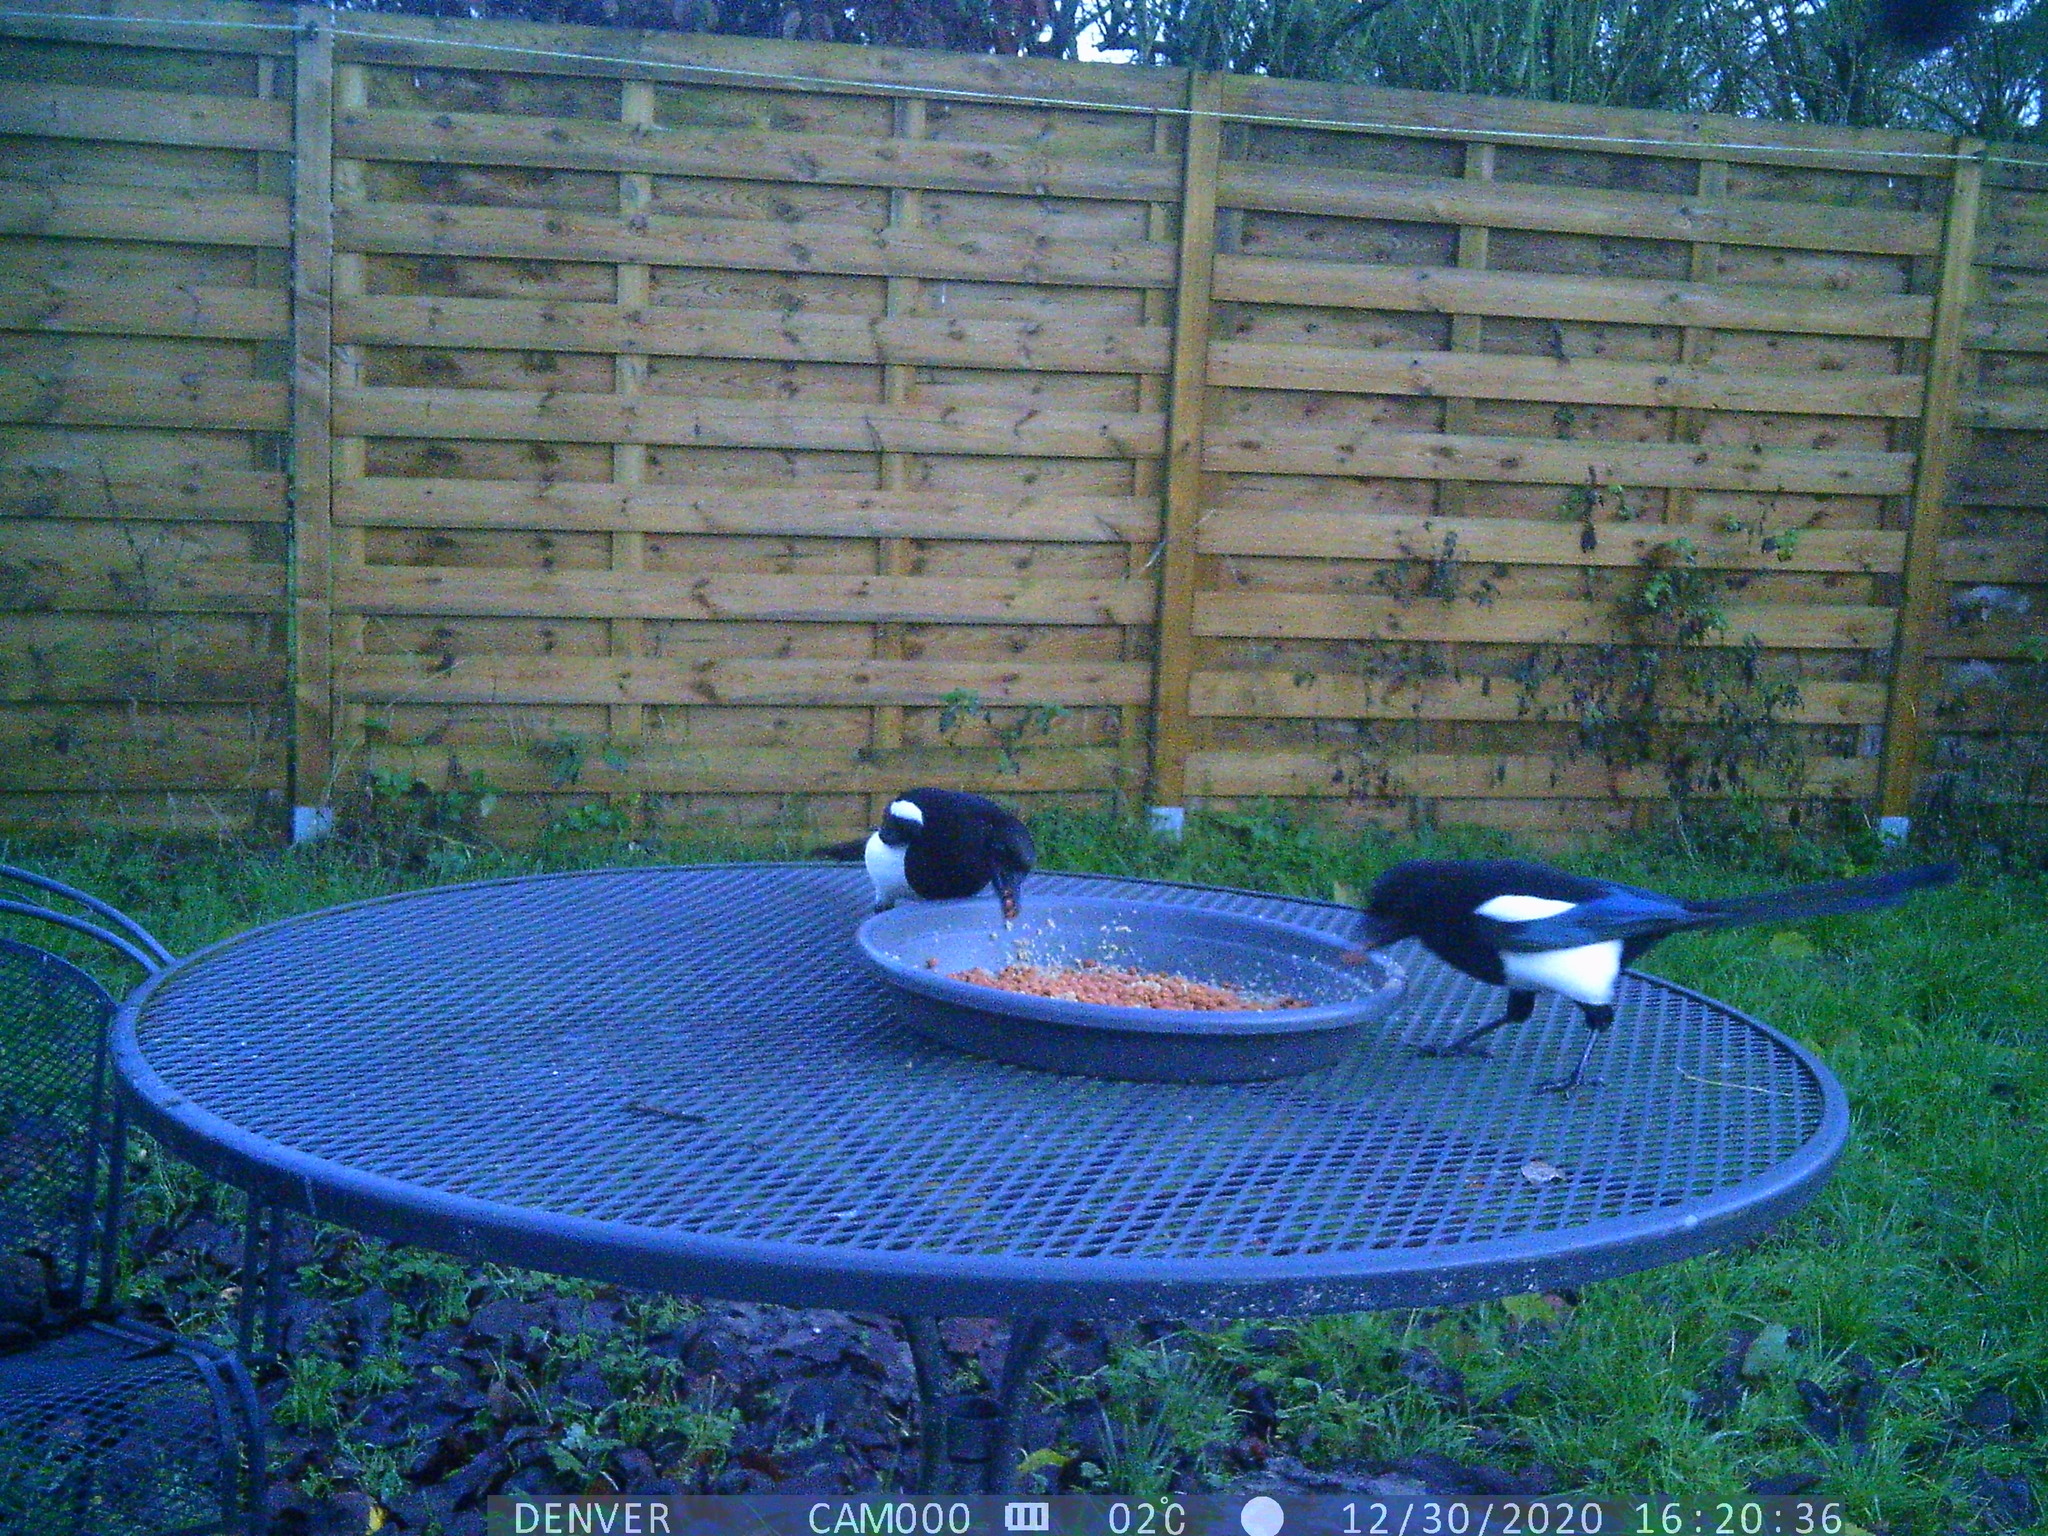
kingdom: Animalia
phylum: Chordata
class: Aves
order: Passeriformes
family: Corvidae
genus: Pica
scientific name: Pica pica
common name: Eurasian magpie
